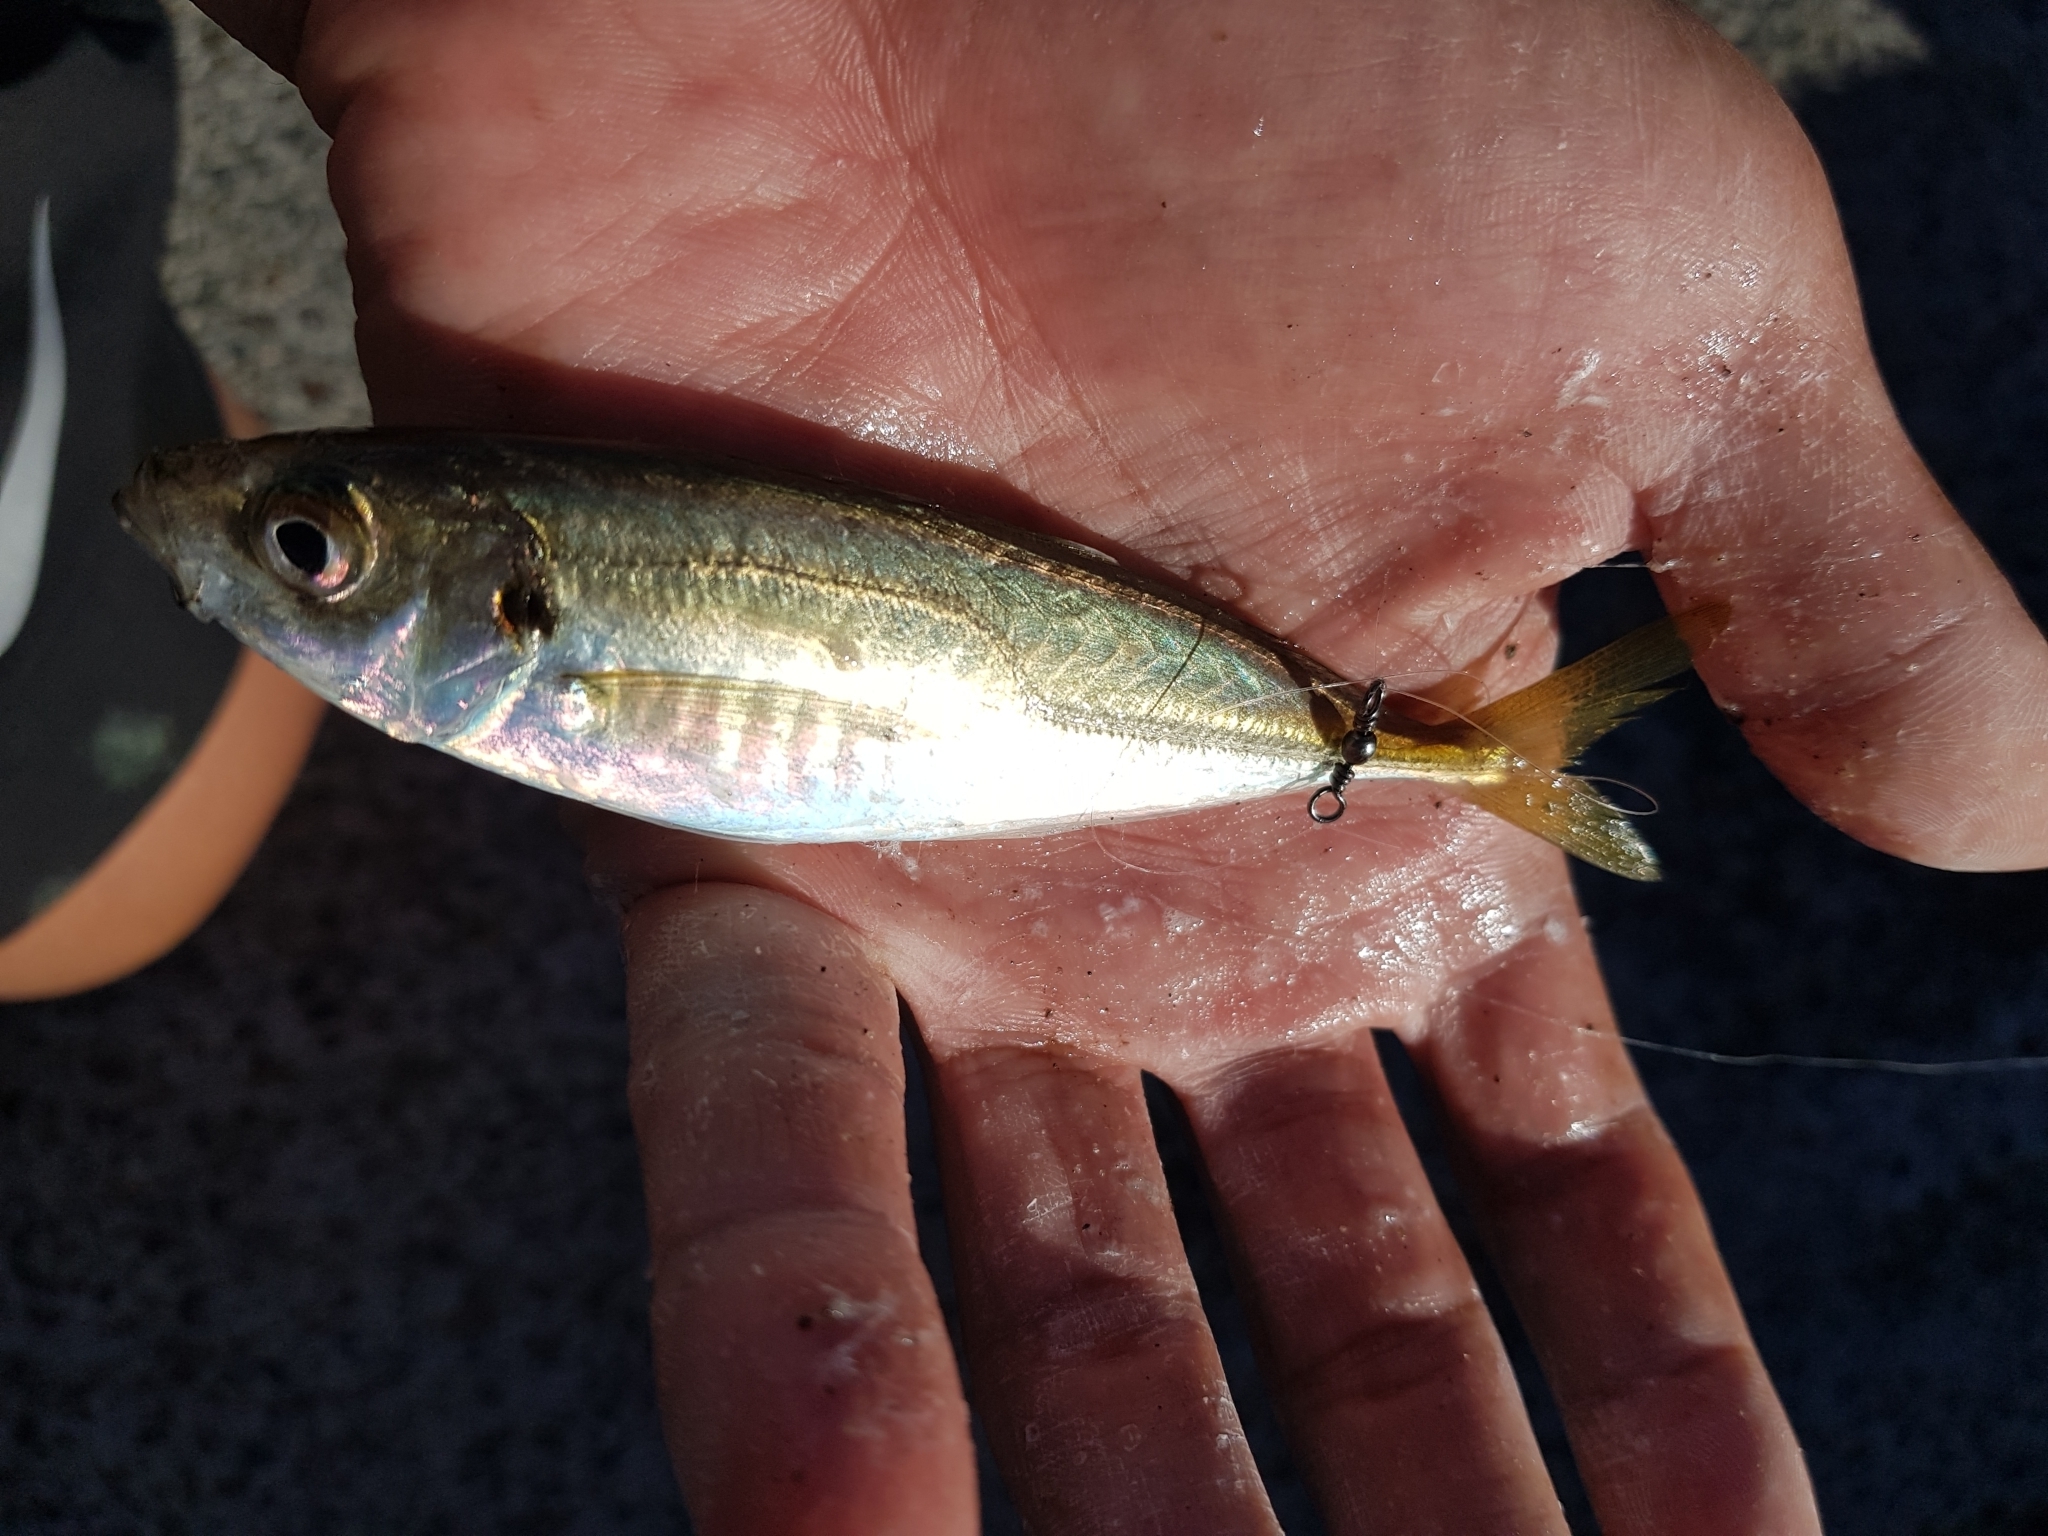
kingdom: Animalia
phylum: Chordata
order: Perciformes
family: Carangidae
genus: Trachurus
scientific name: Trachurus novaezelandiae
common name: Yellowtail horse mackerel
